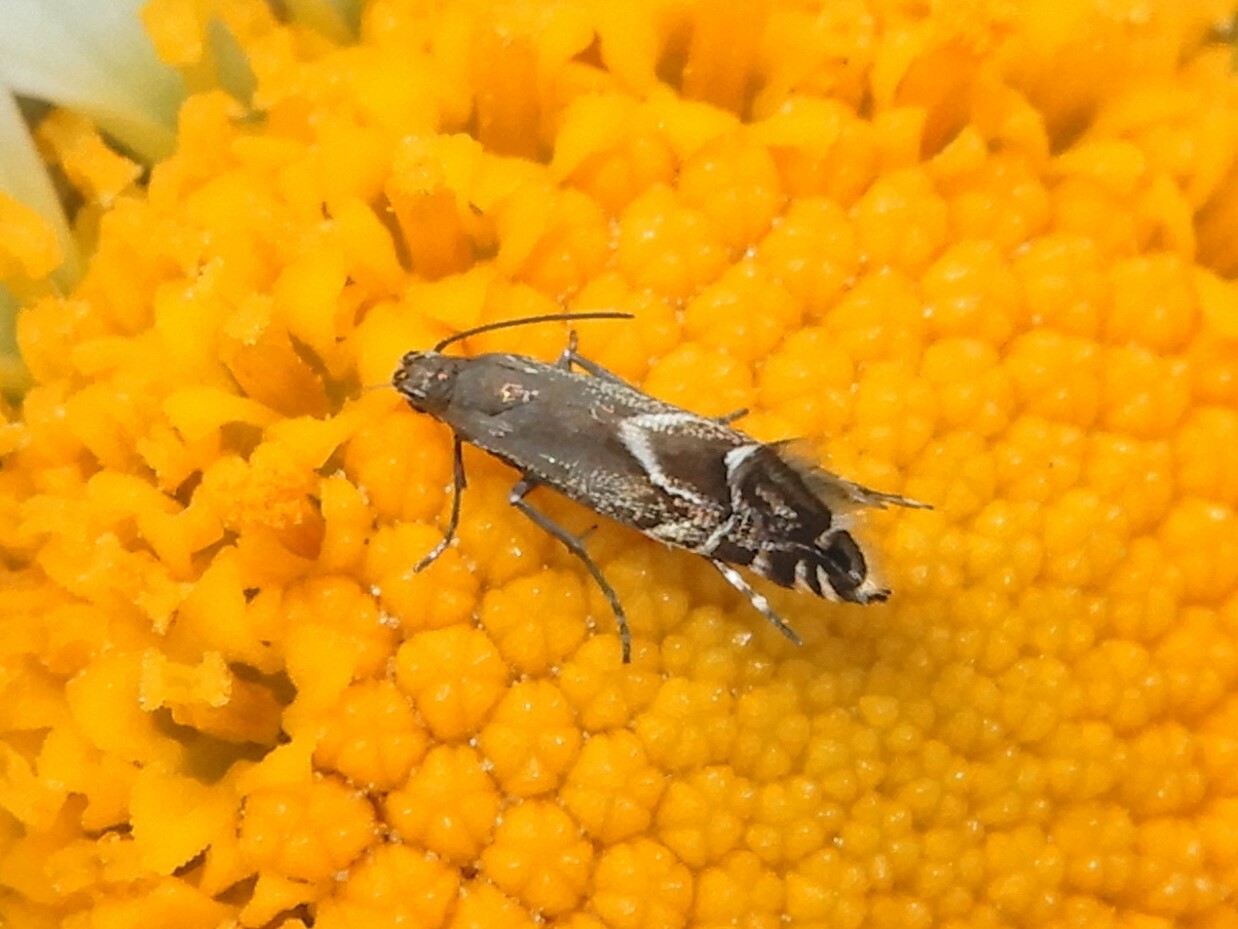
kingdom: Animalia
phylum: Arthropoda
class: Insecta
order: Lepidoptera
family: Glyphipterigidae
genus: Glyphipterix
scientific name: Glyphipterix simpliciella
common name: Cocksfoot moth
